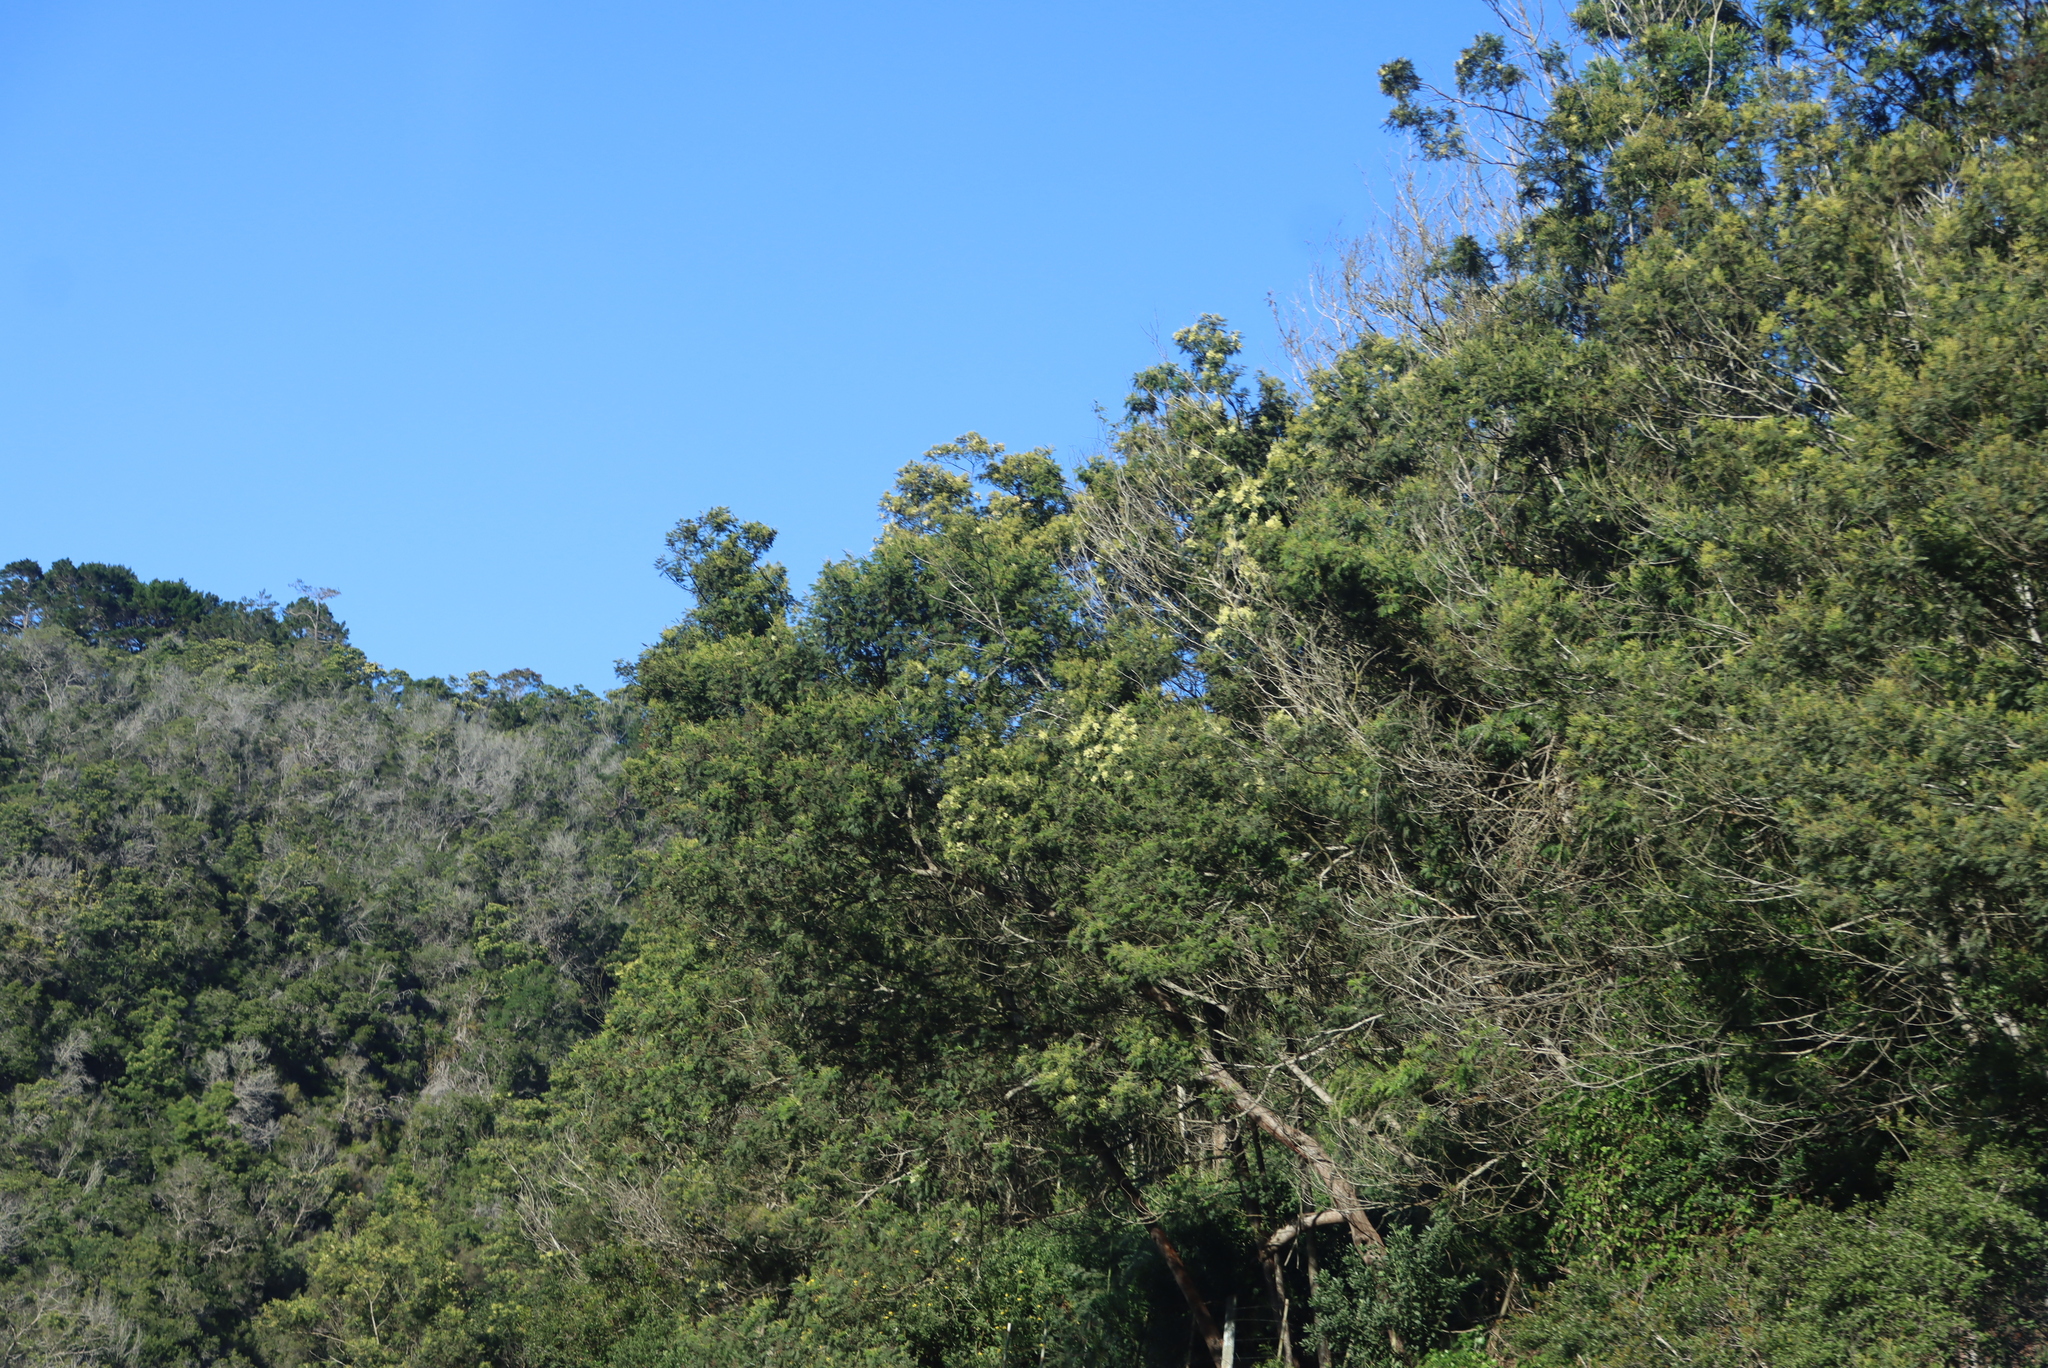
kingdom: Plantae
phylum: Tracheophyta
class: Magnoliopsida
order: Fabales
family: Fabaceae
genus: Acacia
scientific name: Acacia mearnsii
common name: Black wattle
